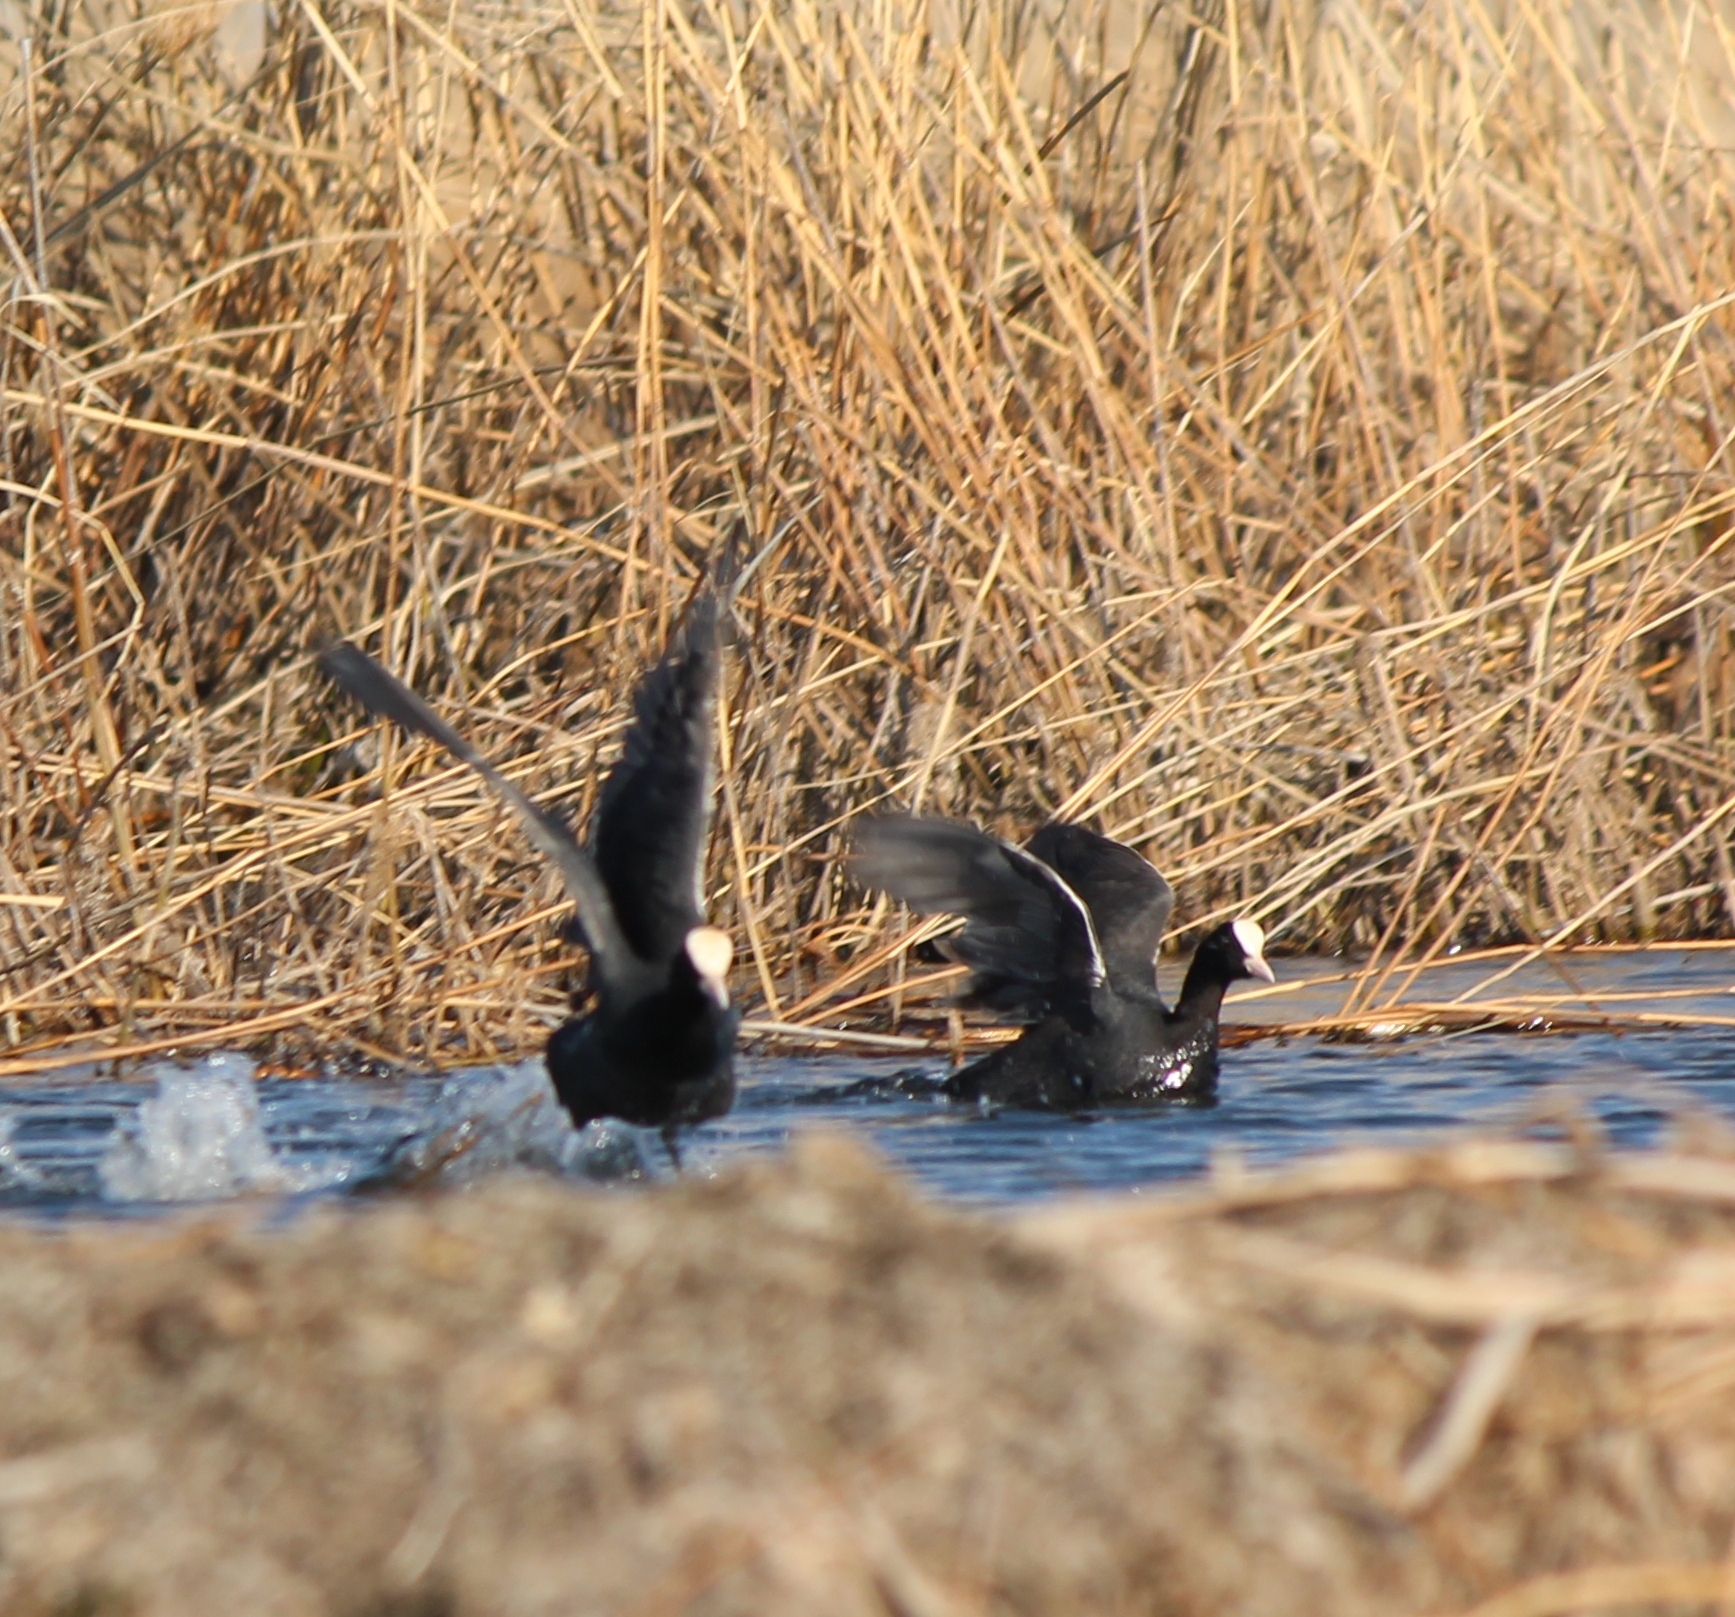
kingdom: Animalia
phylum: Chordata
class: Aves
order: Gruiformes
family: Rallidae
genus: Fulica
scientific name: Fulica atra
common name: Eurasian coot
